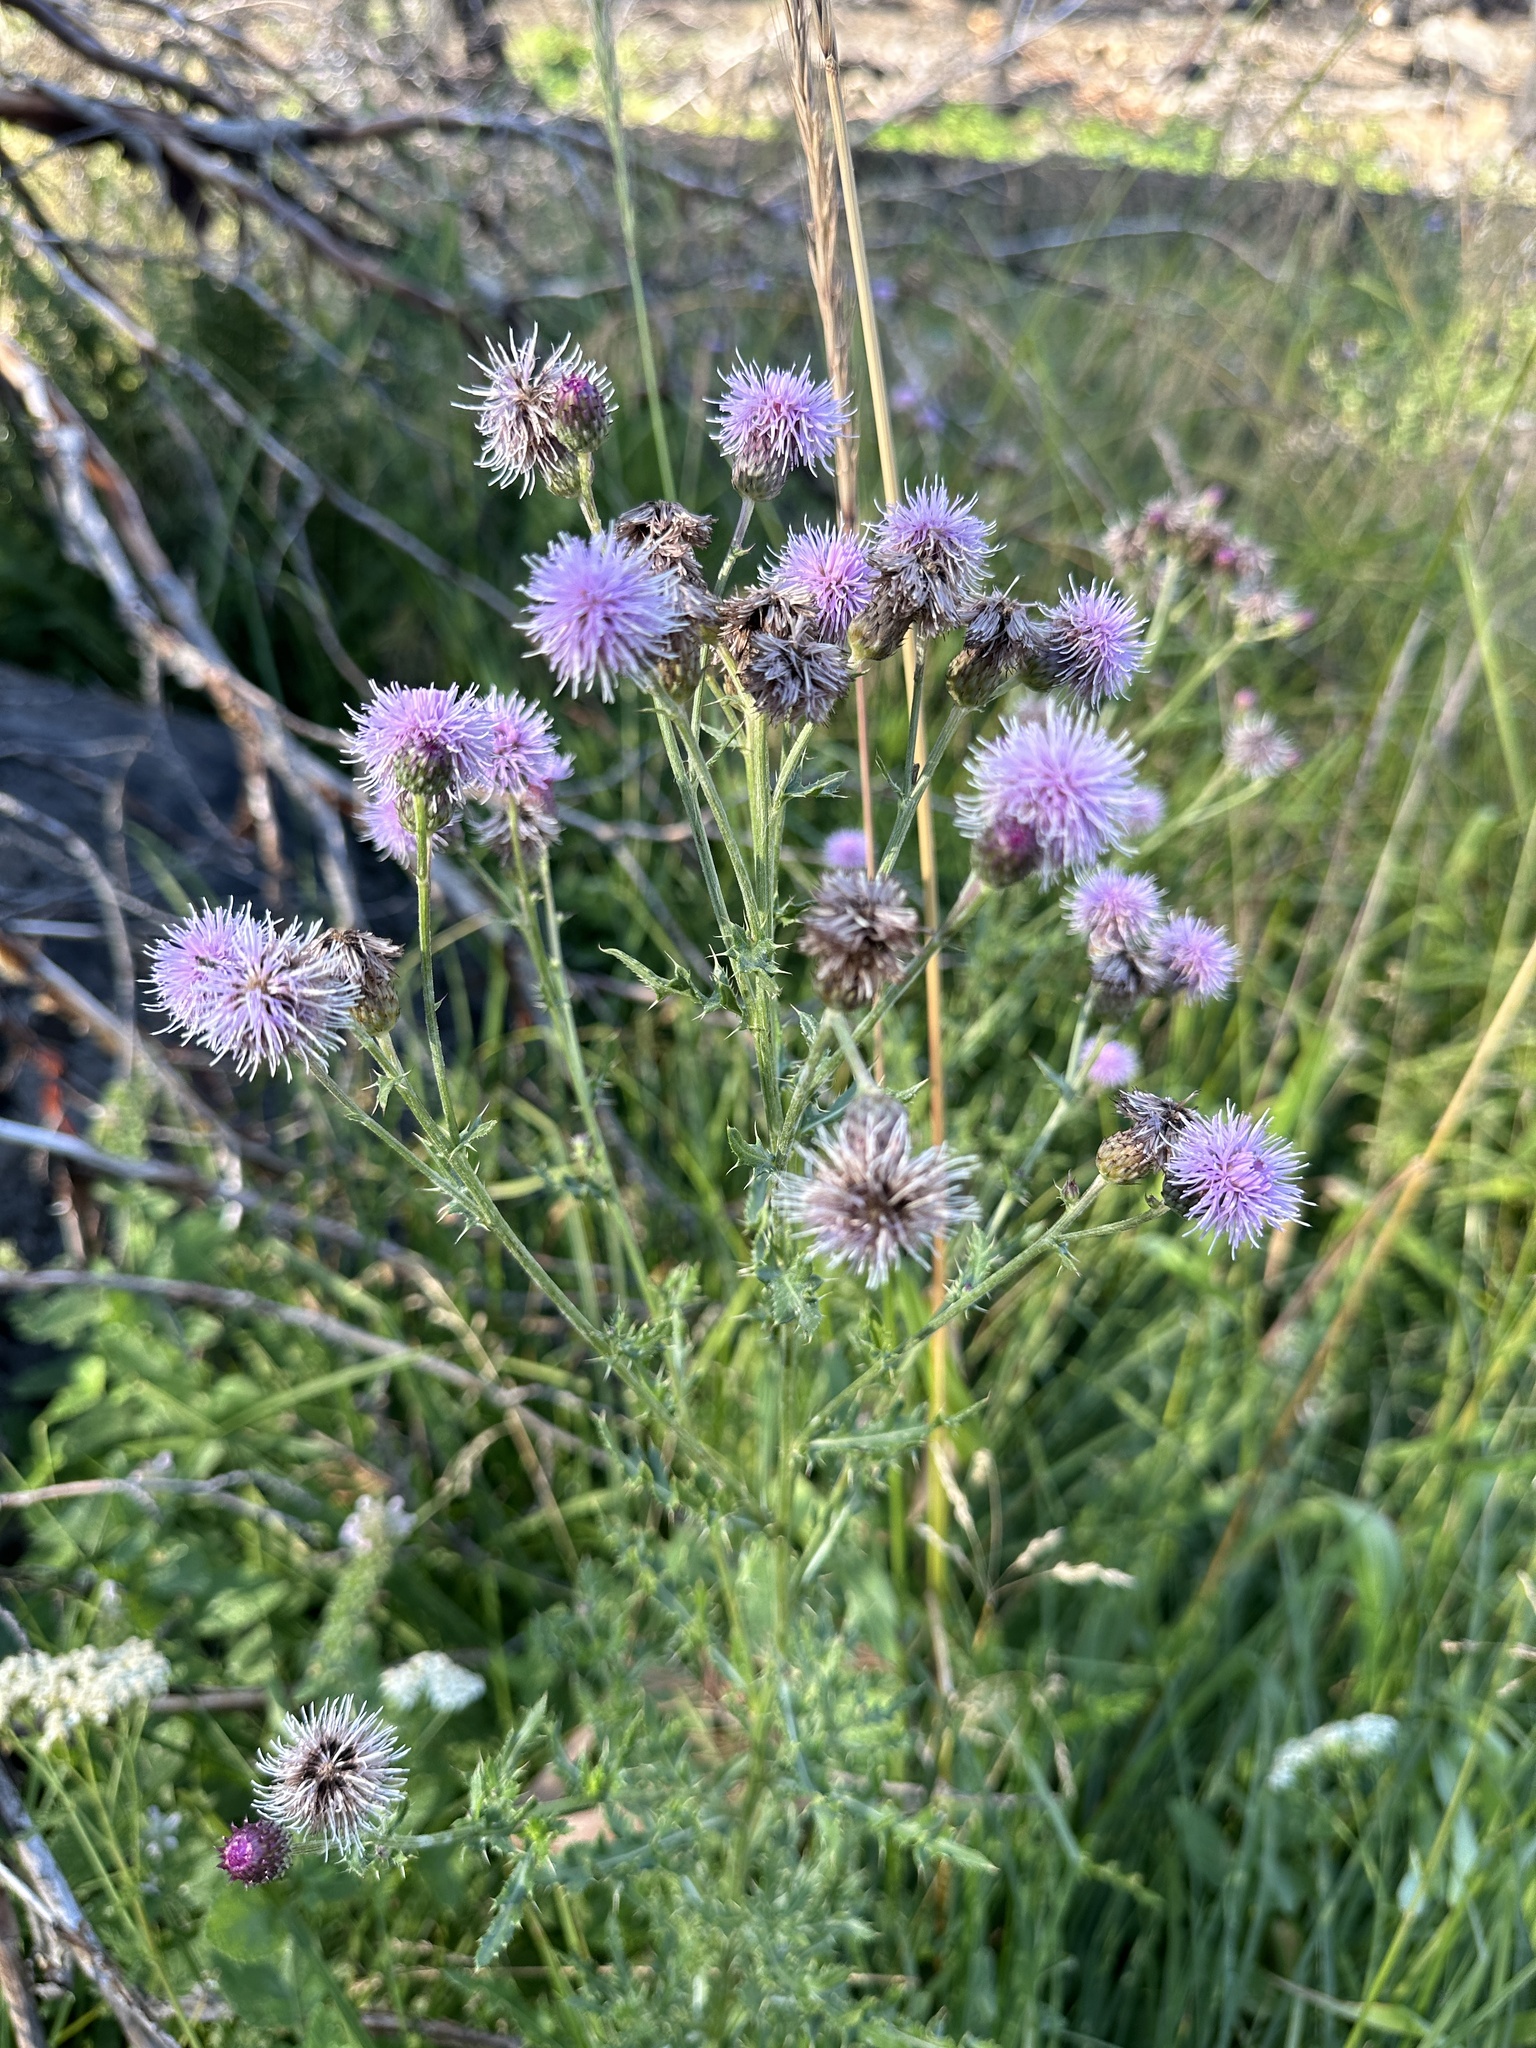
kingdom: Plantae
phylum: Tracheophyta
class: Magnoliopsida
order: Asterales
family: Asteraceae
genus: Cirsium
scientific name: Cirsium arvense
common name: Creeping thistle
